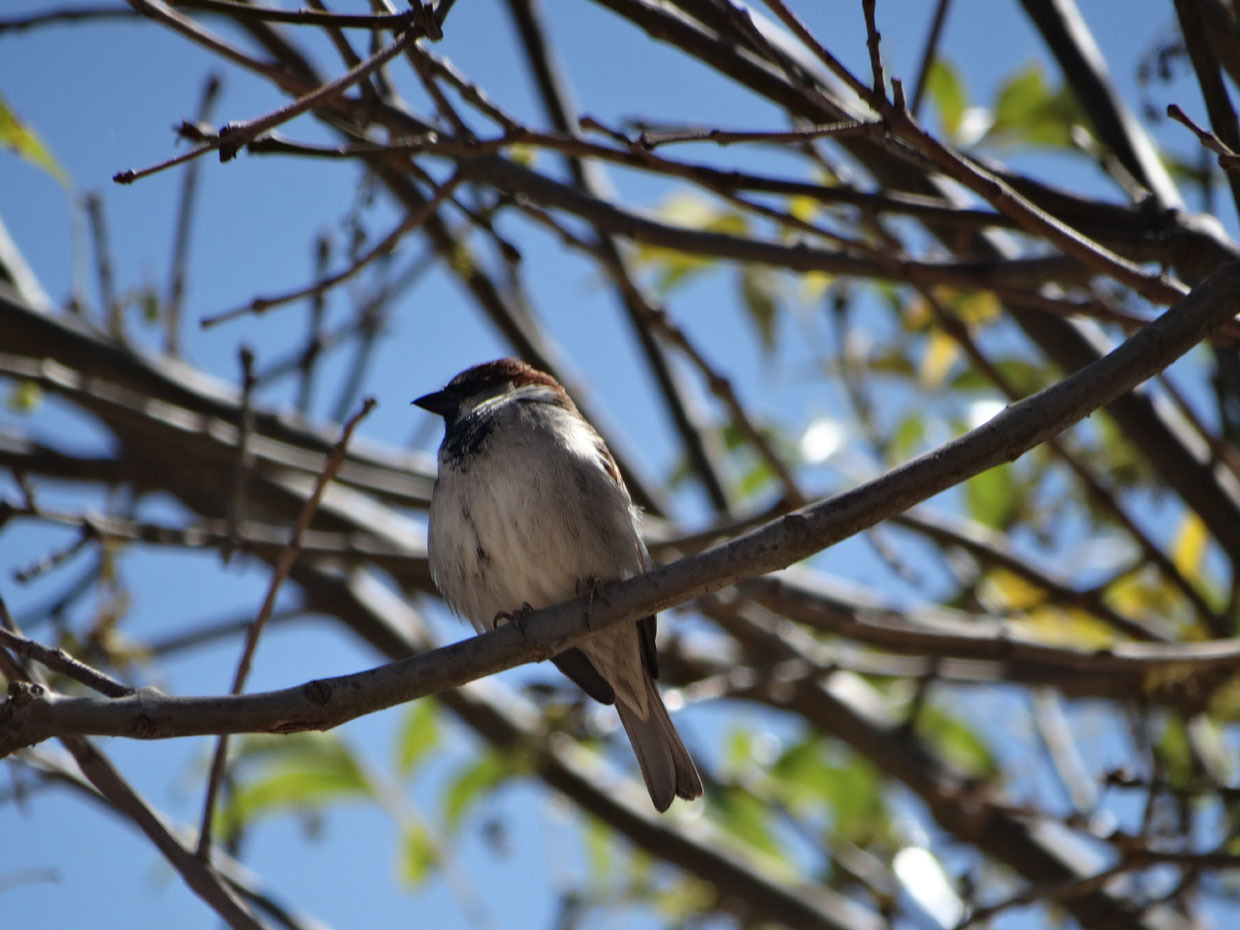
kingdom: Animalia
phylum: Chordata
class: Aves
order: Passeriformes
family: Passeridae
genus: Passer
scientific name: Passer domesticus
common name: House sparrow
